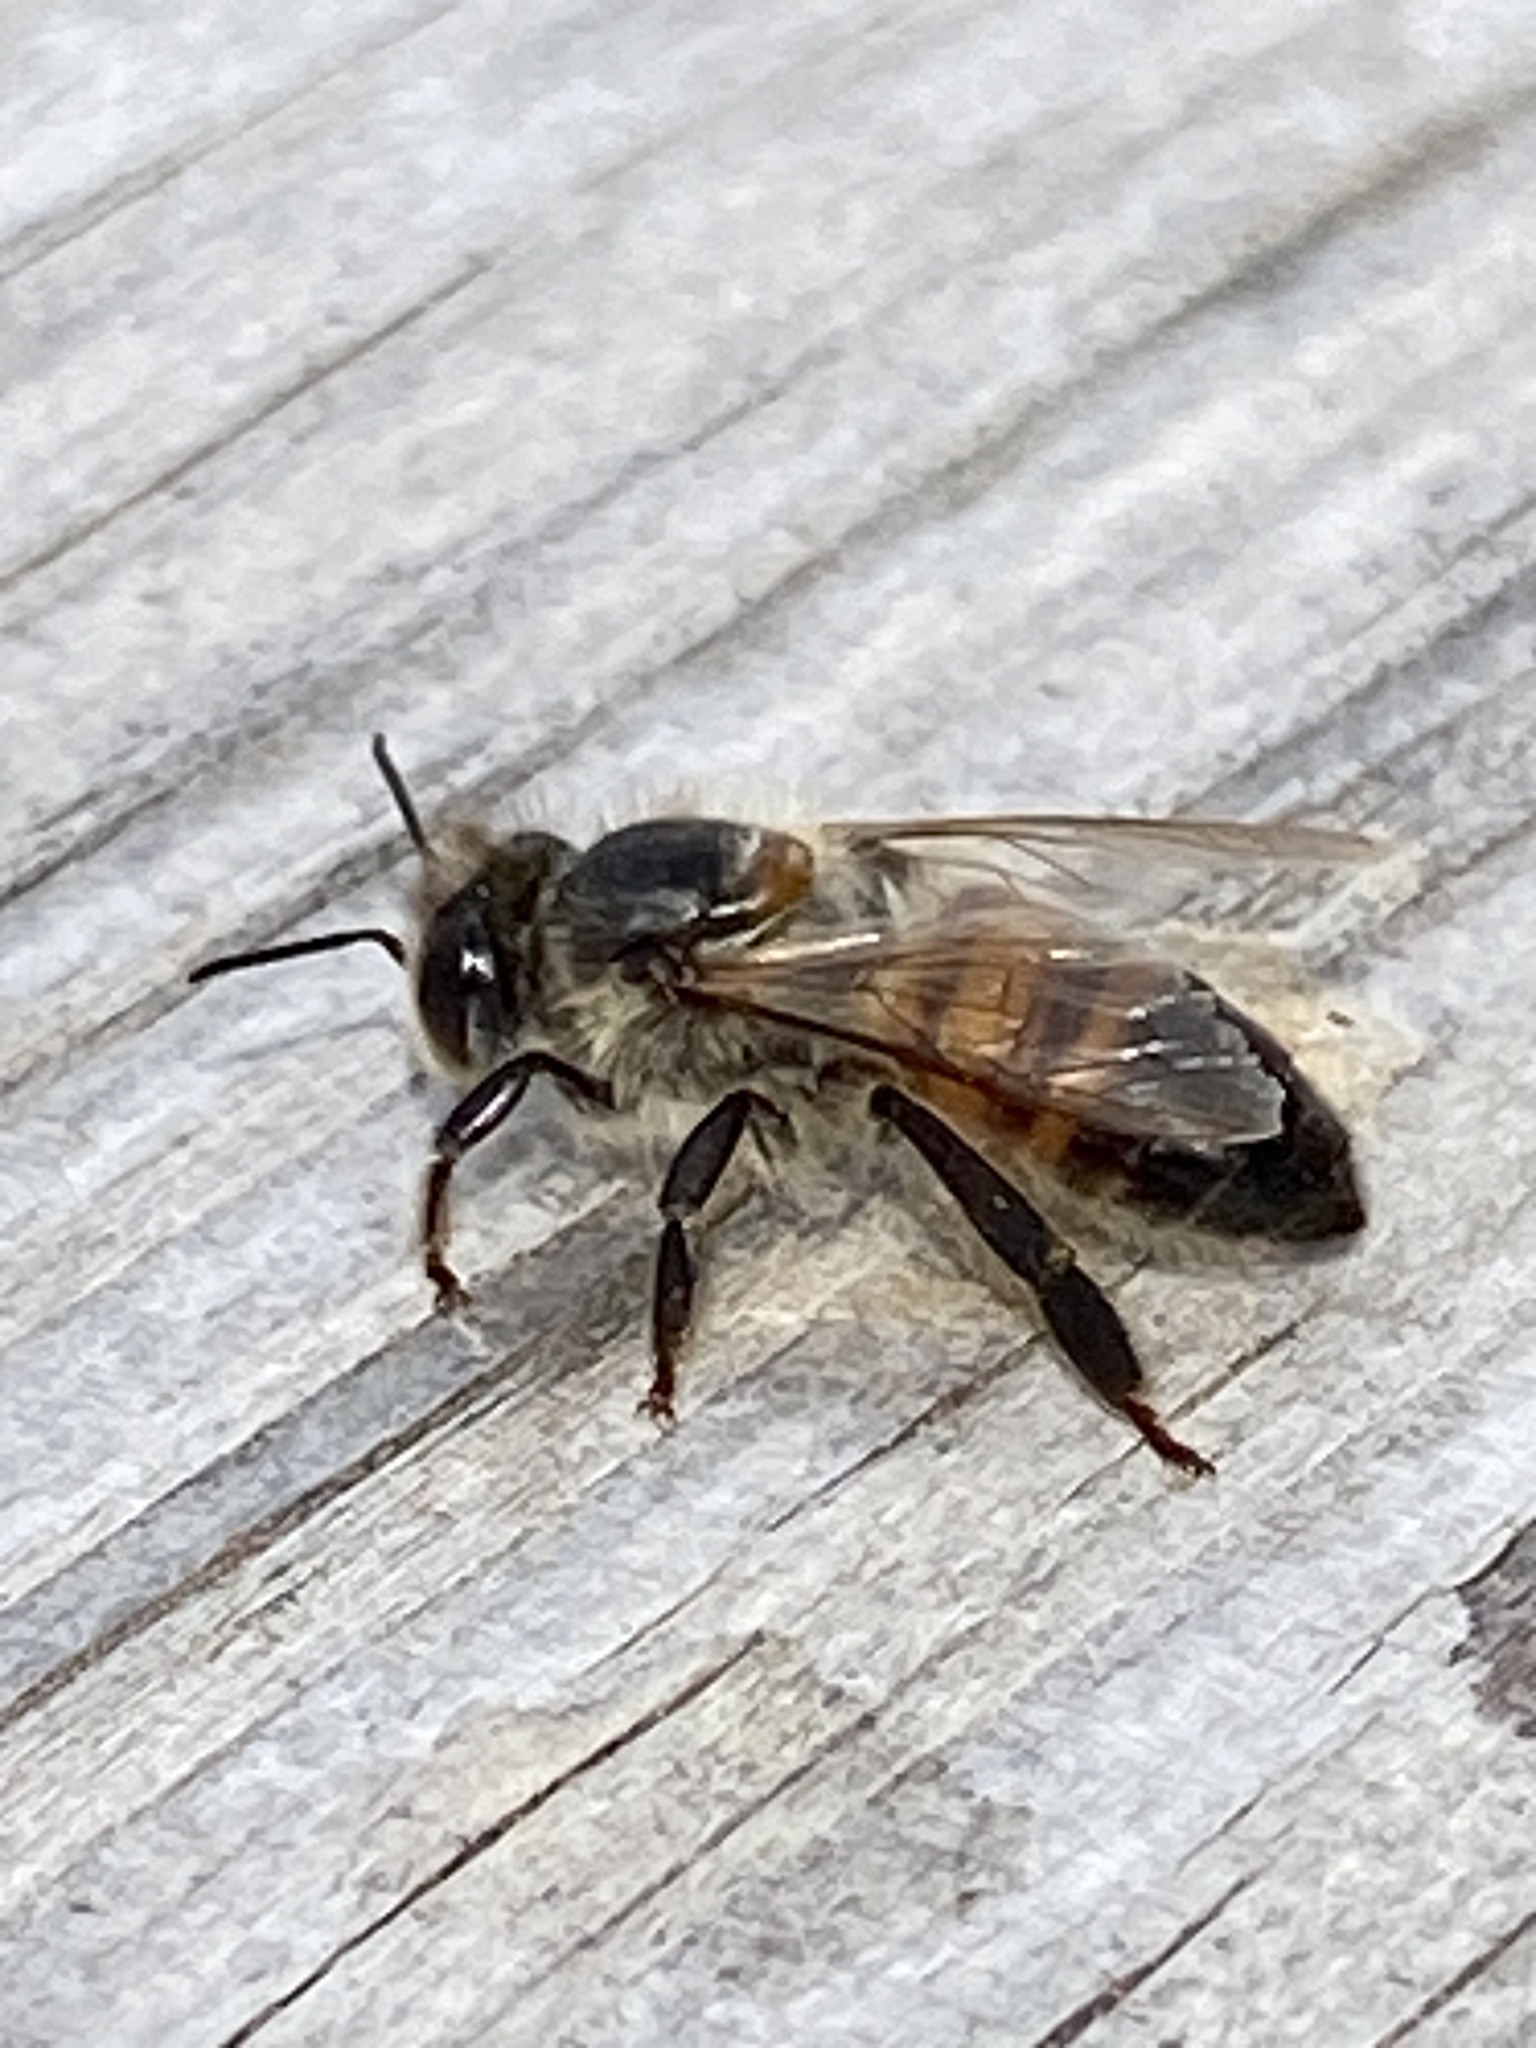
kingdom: Animalia
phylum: Arthropoda
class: Insecta
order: Hymenoptera
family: Apidae
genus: Apis
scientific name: Apis mellifera
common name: Honey bee
